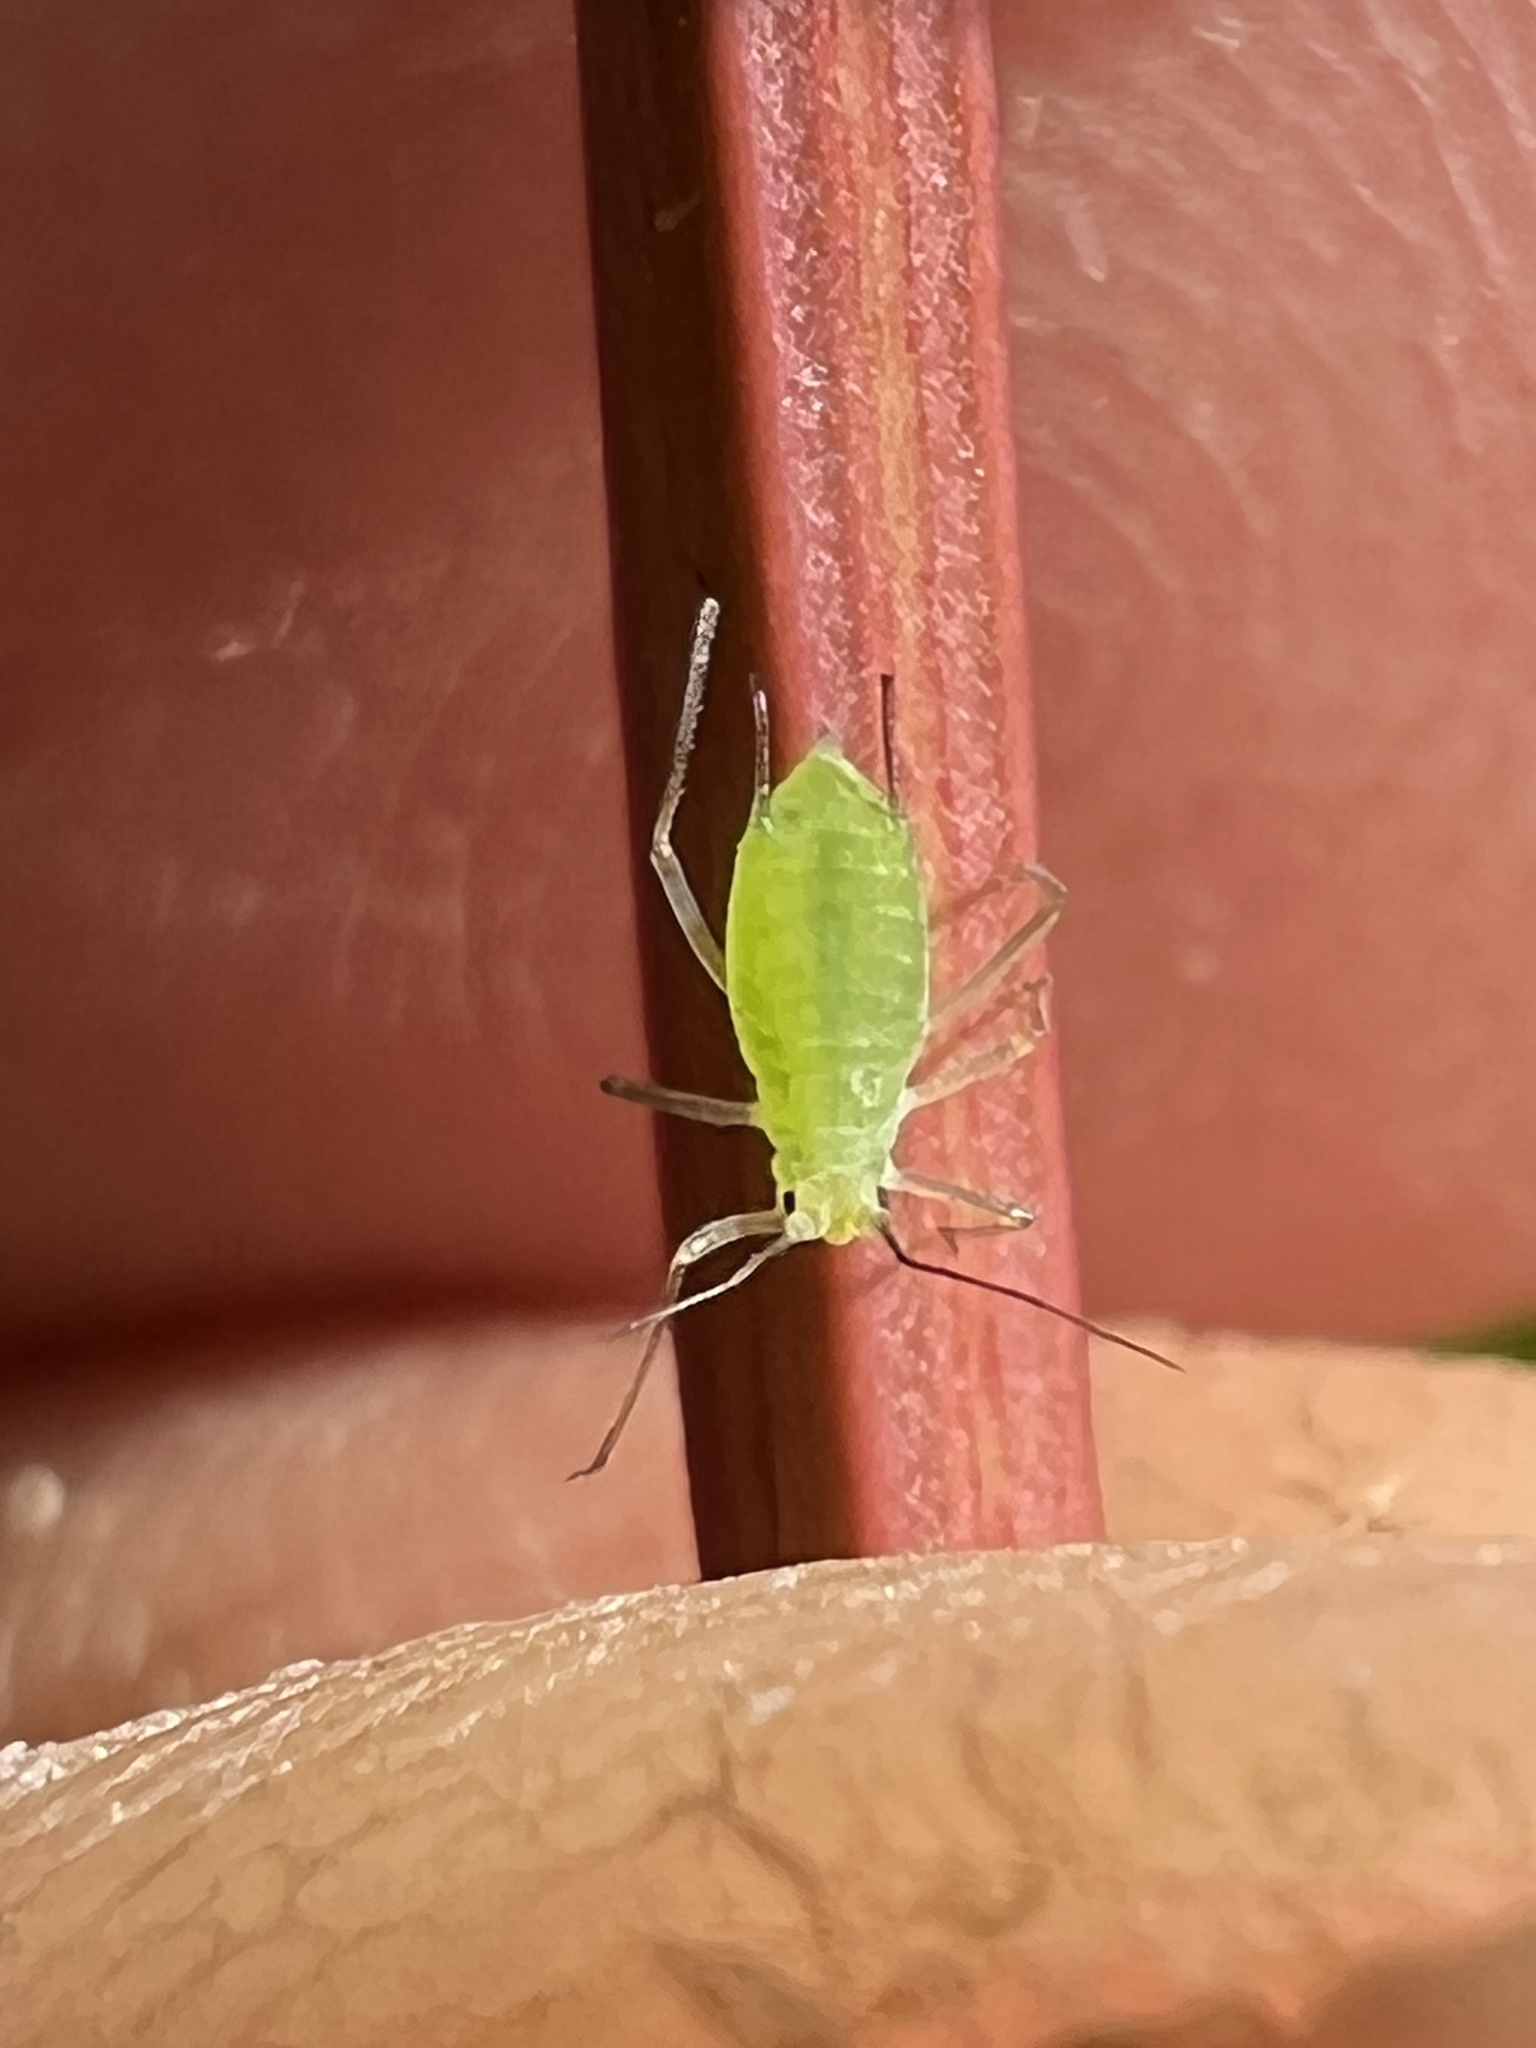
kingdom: Animalia
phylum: Arthropoda
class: Insecta
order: Hemiptera
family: Aphididae
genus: Macrosiphum
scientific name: Macrosiphum euphorbiae
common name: Potato aphid
